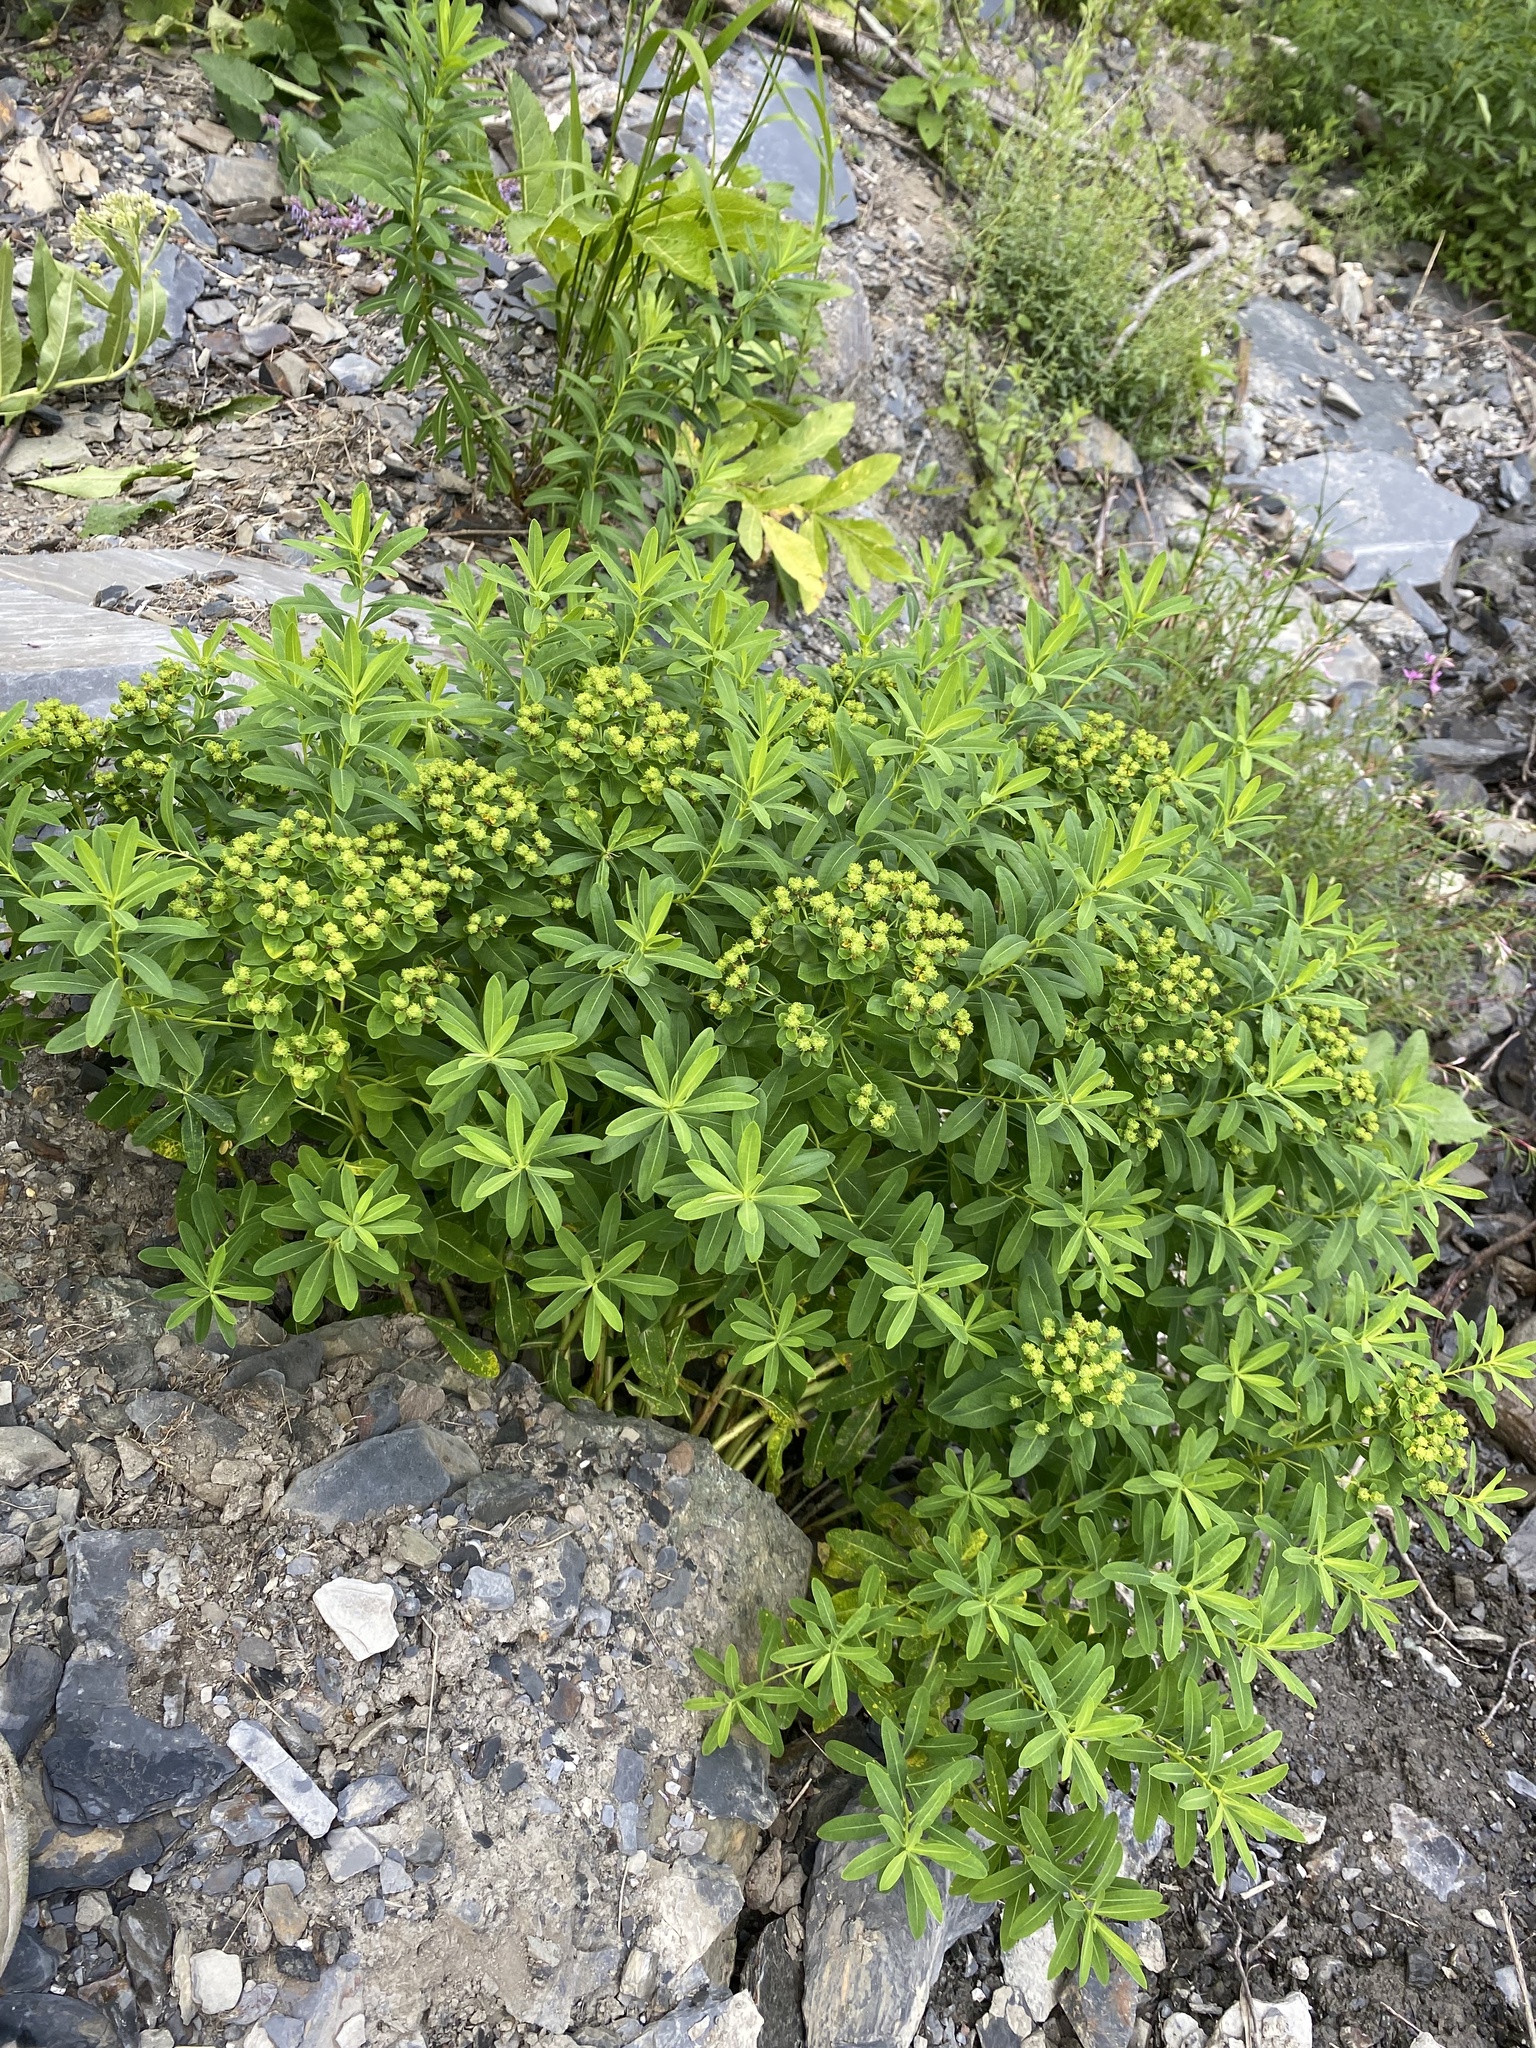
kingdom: Plantae
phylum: Tracheophyta
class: Magnoliopsida
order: Malpighiales
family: Euphorbiaceae
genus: Euphorbia
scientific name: Euphorbia eugeniae
